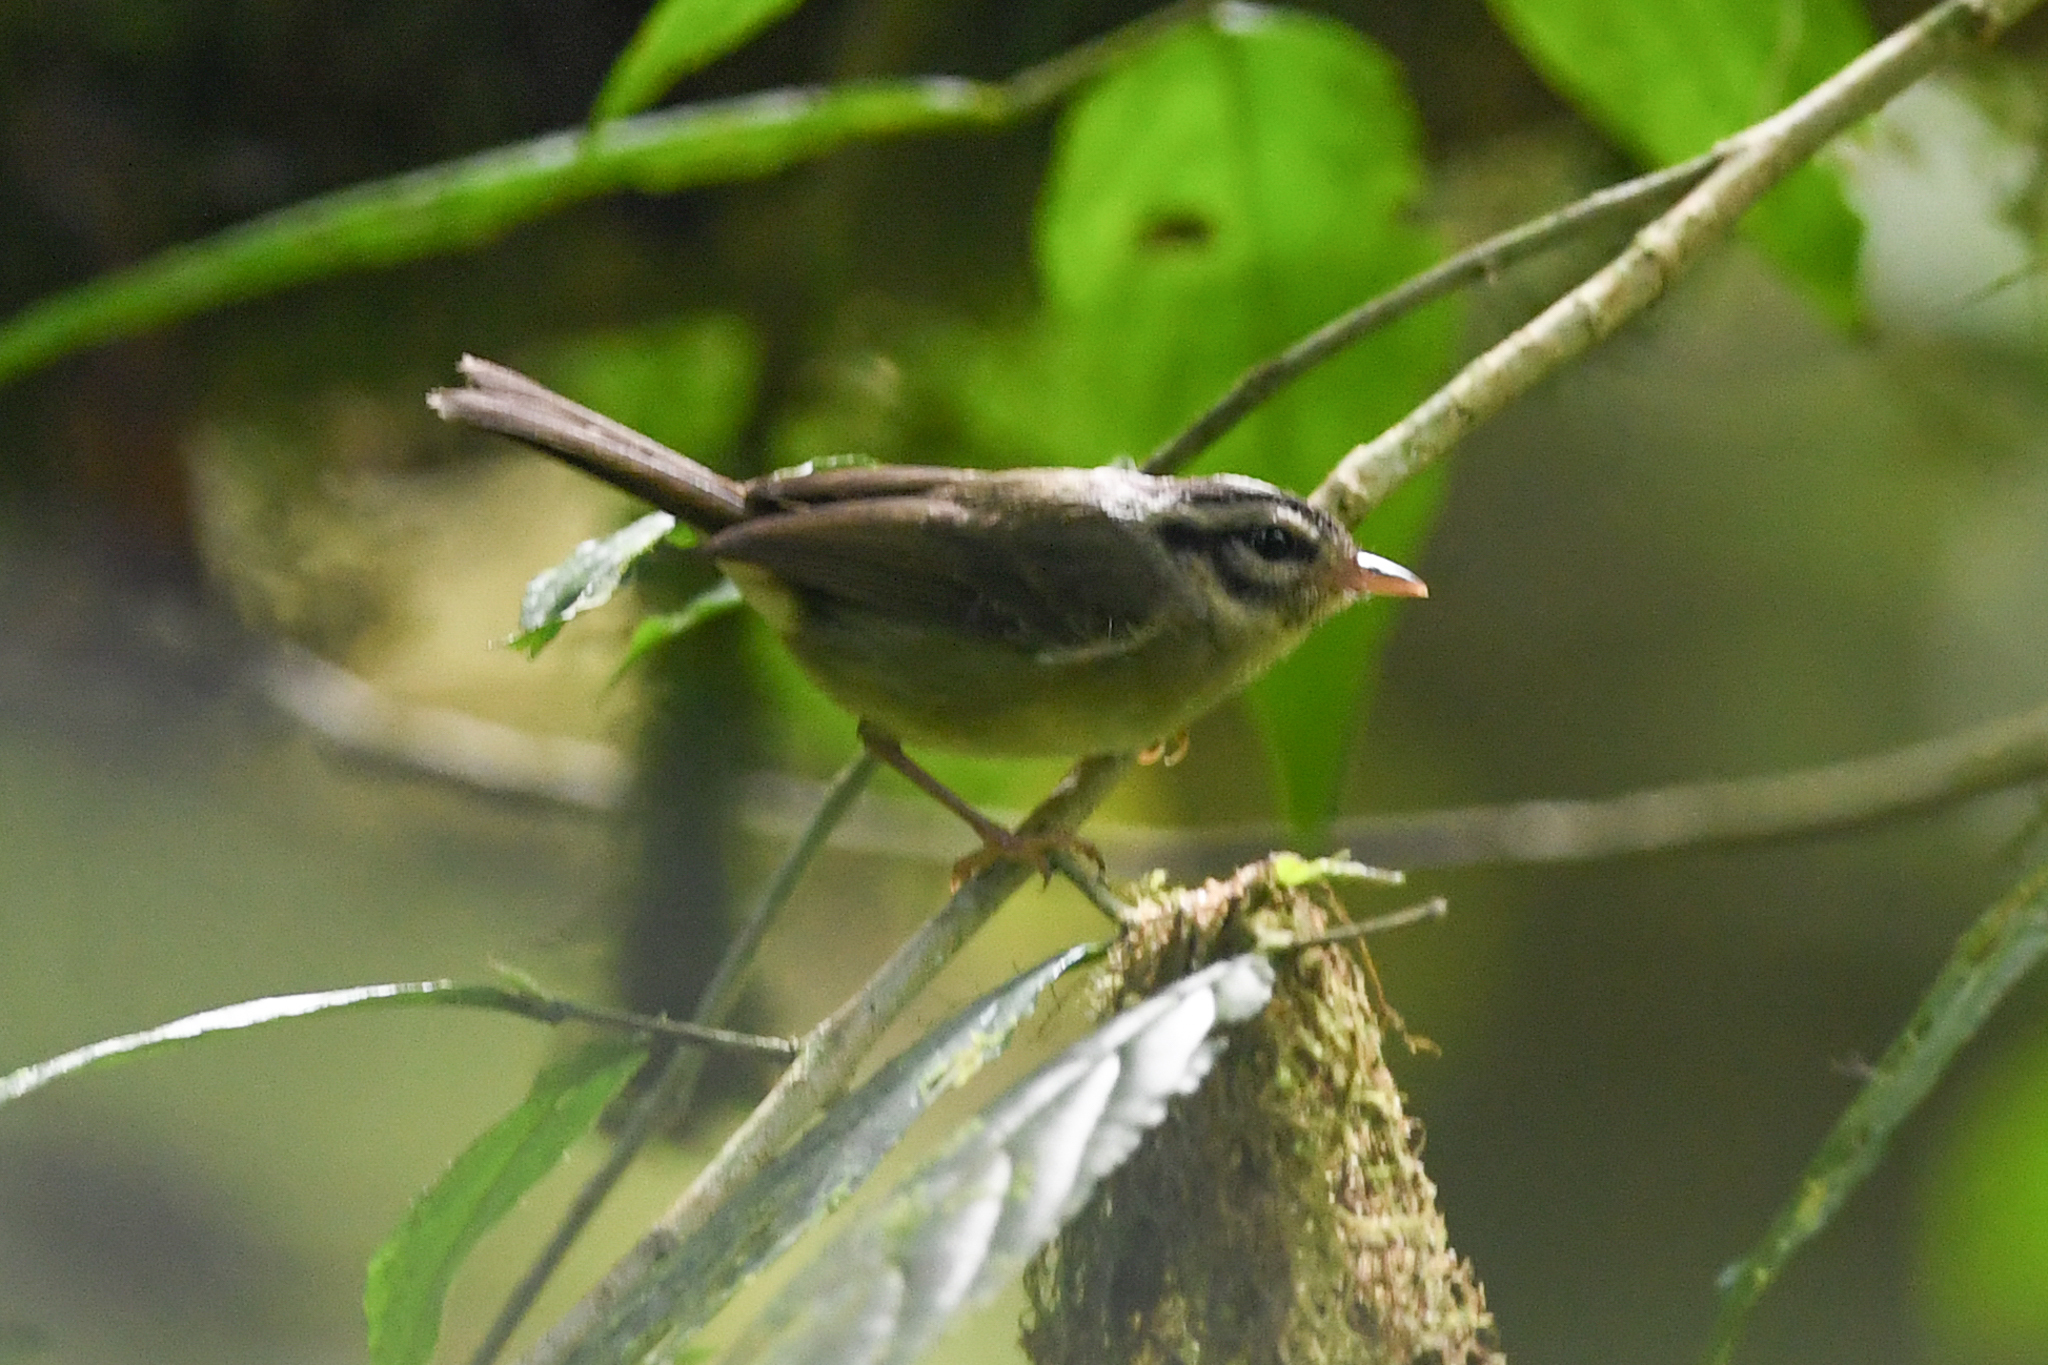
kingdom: Animalia
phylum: Chordata
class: Aves
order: Passeriformes
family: Parulidae
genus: Basileuterus
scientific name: Basileuterus melanotis
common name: Black-eared warbler
